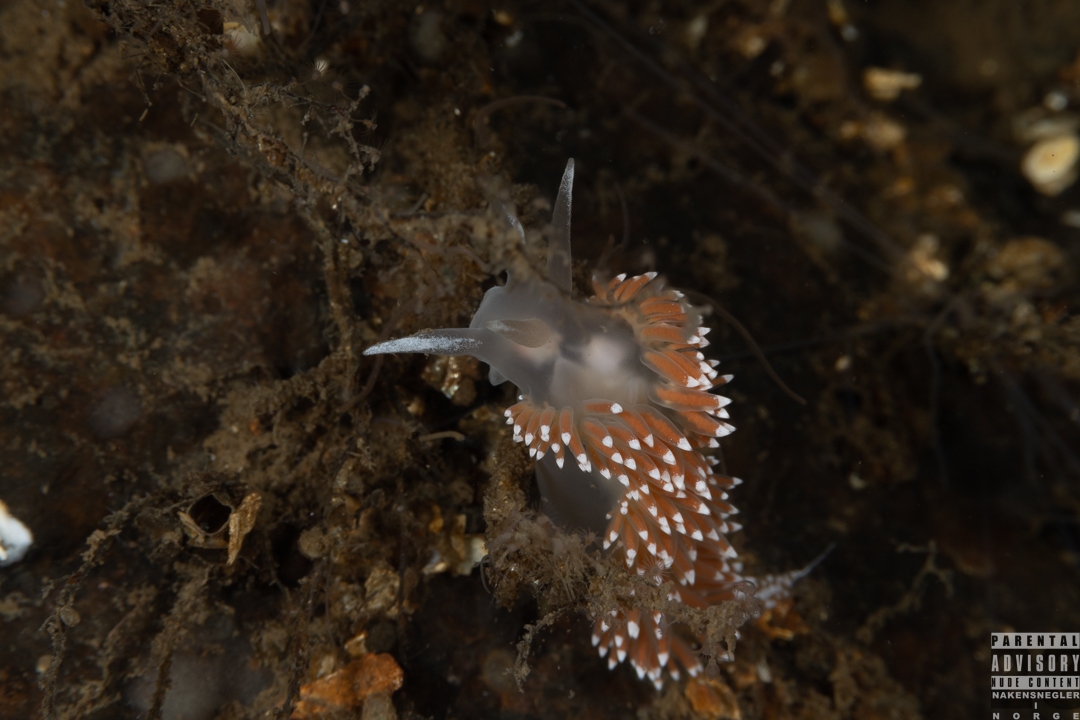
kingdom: Animalia
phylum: Mollusca
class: Gastropoda
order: Nudibranchia
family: Coryphellidae
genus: Coryphella
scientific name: Coryphella verrucosa
